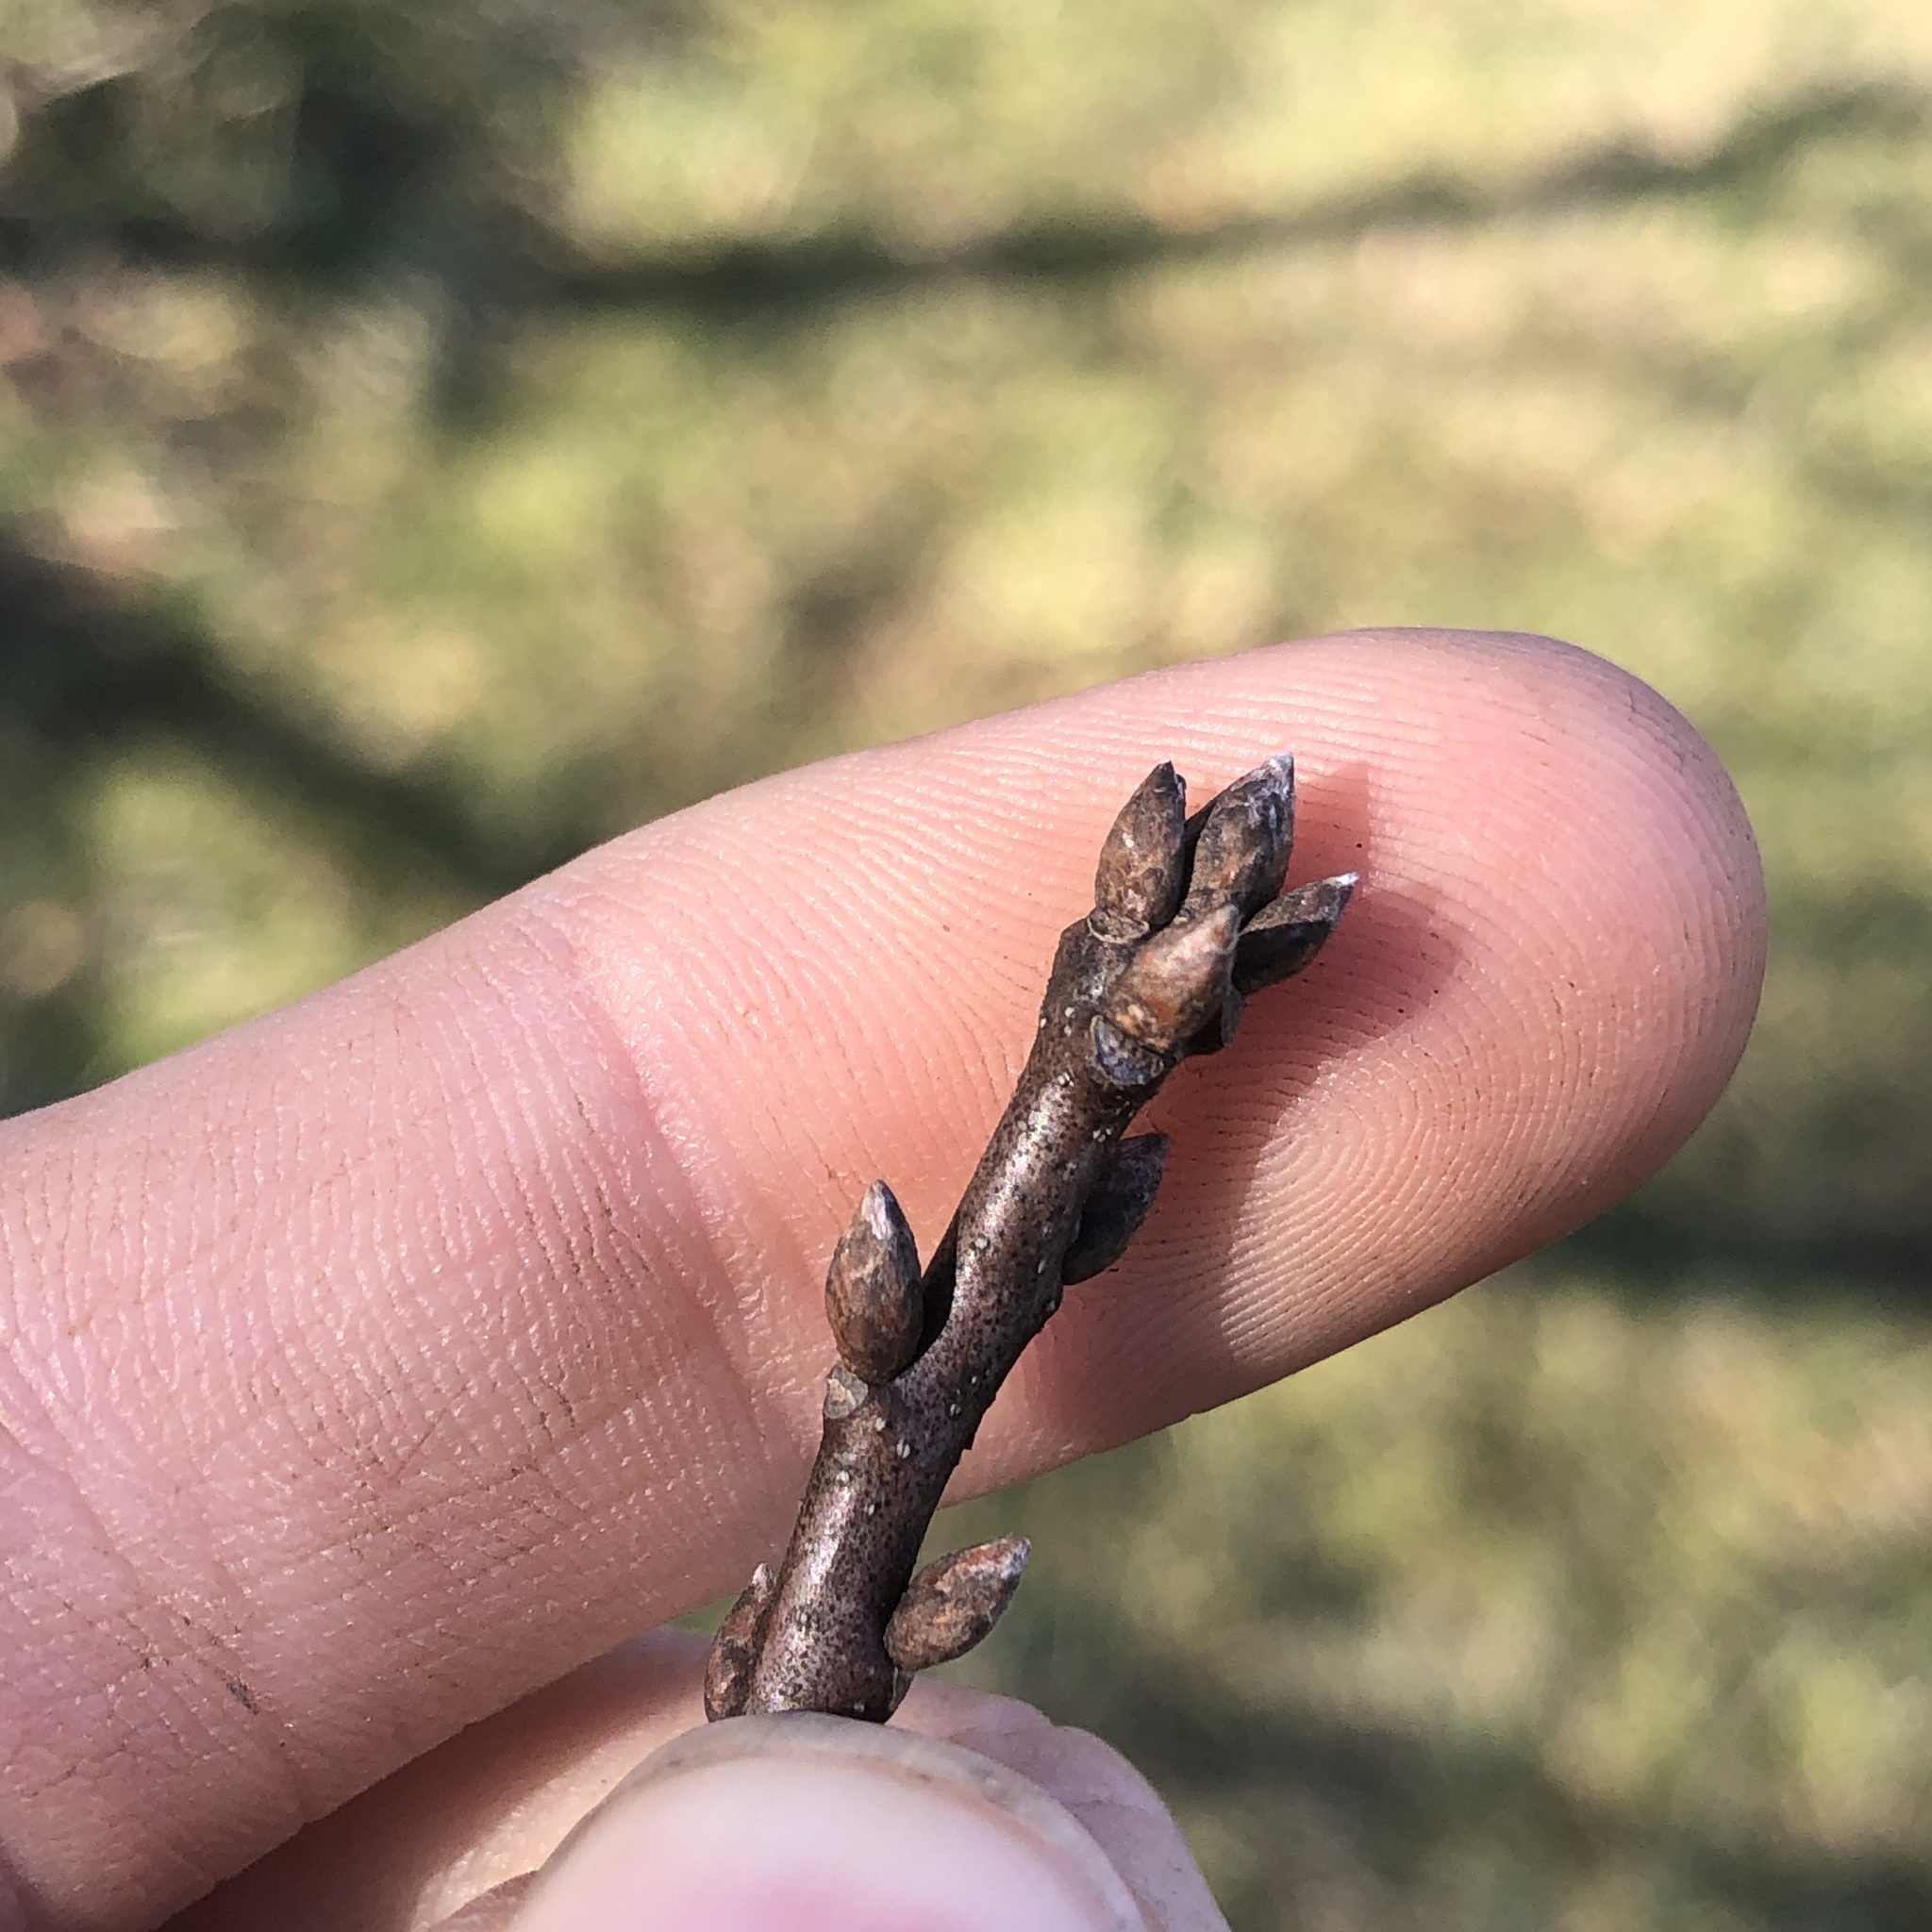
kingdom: Plantae
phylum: Tracheophyta
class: Magnoliopsida
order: Fagales
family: Fagaceae
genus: Quercus
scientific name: Quercus phellos
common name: Willow oak
